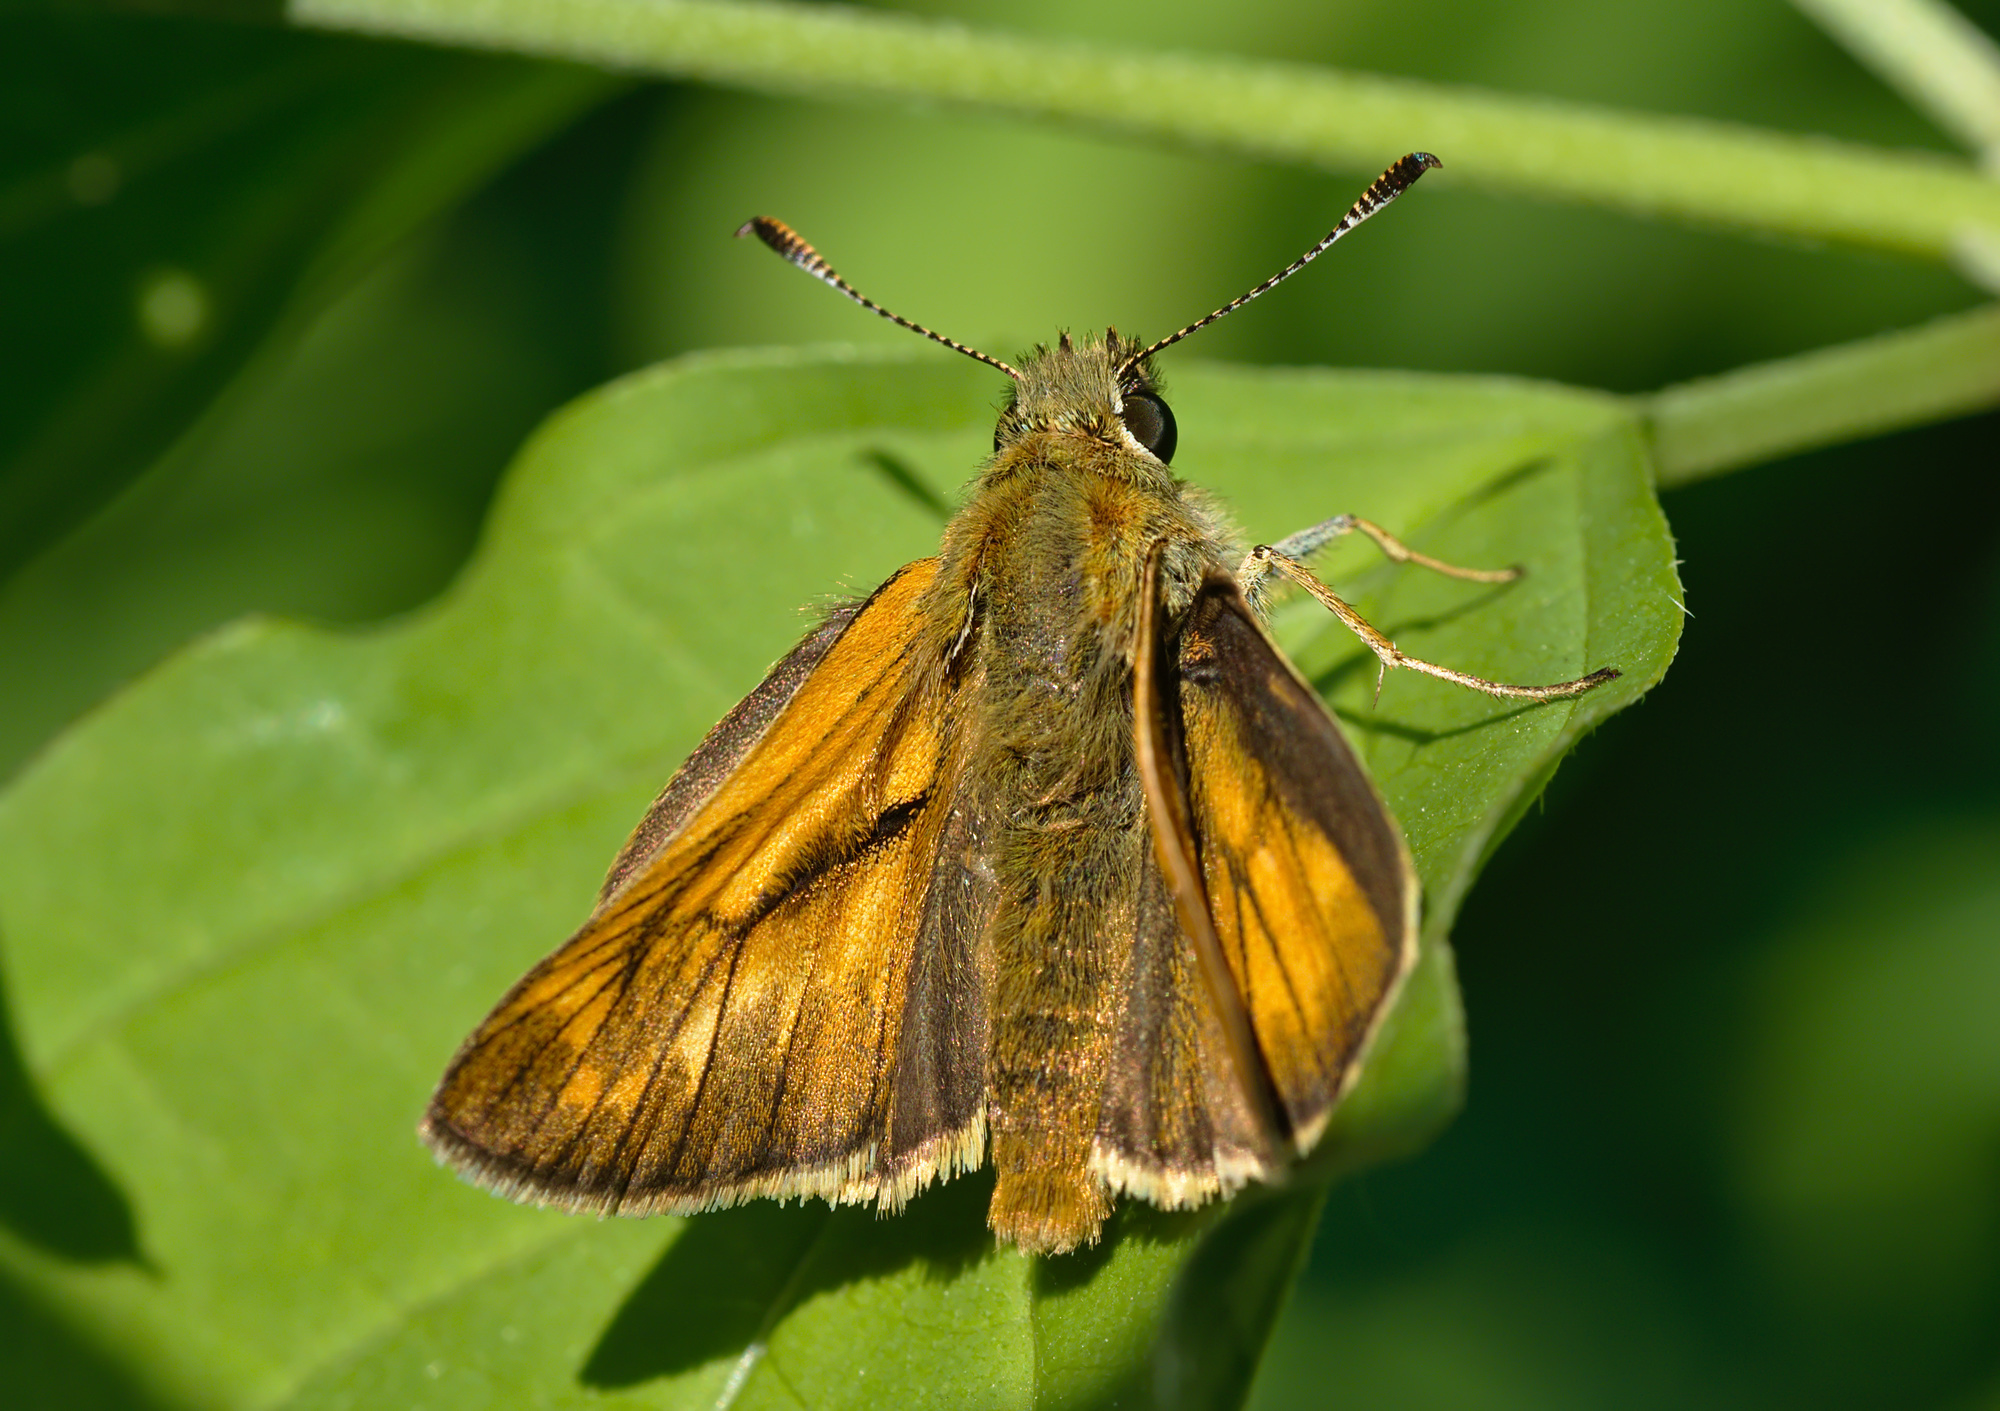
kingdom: Animalia
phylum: Arthropoda
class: Insecta
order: Lepidoptera
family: Hesperiidae
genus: Ochlodes
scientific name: Ochlodes venata
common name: Large skipper
